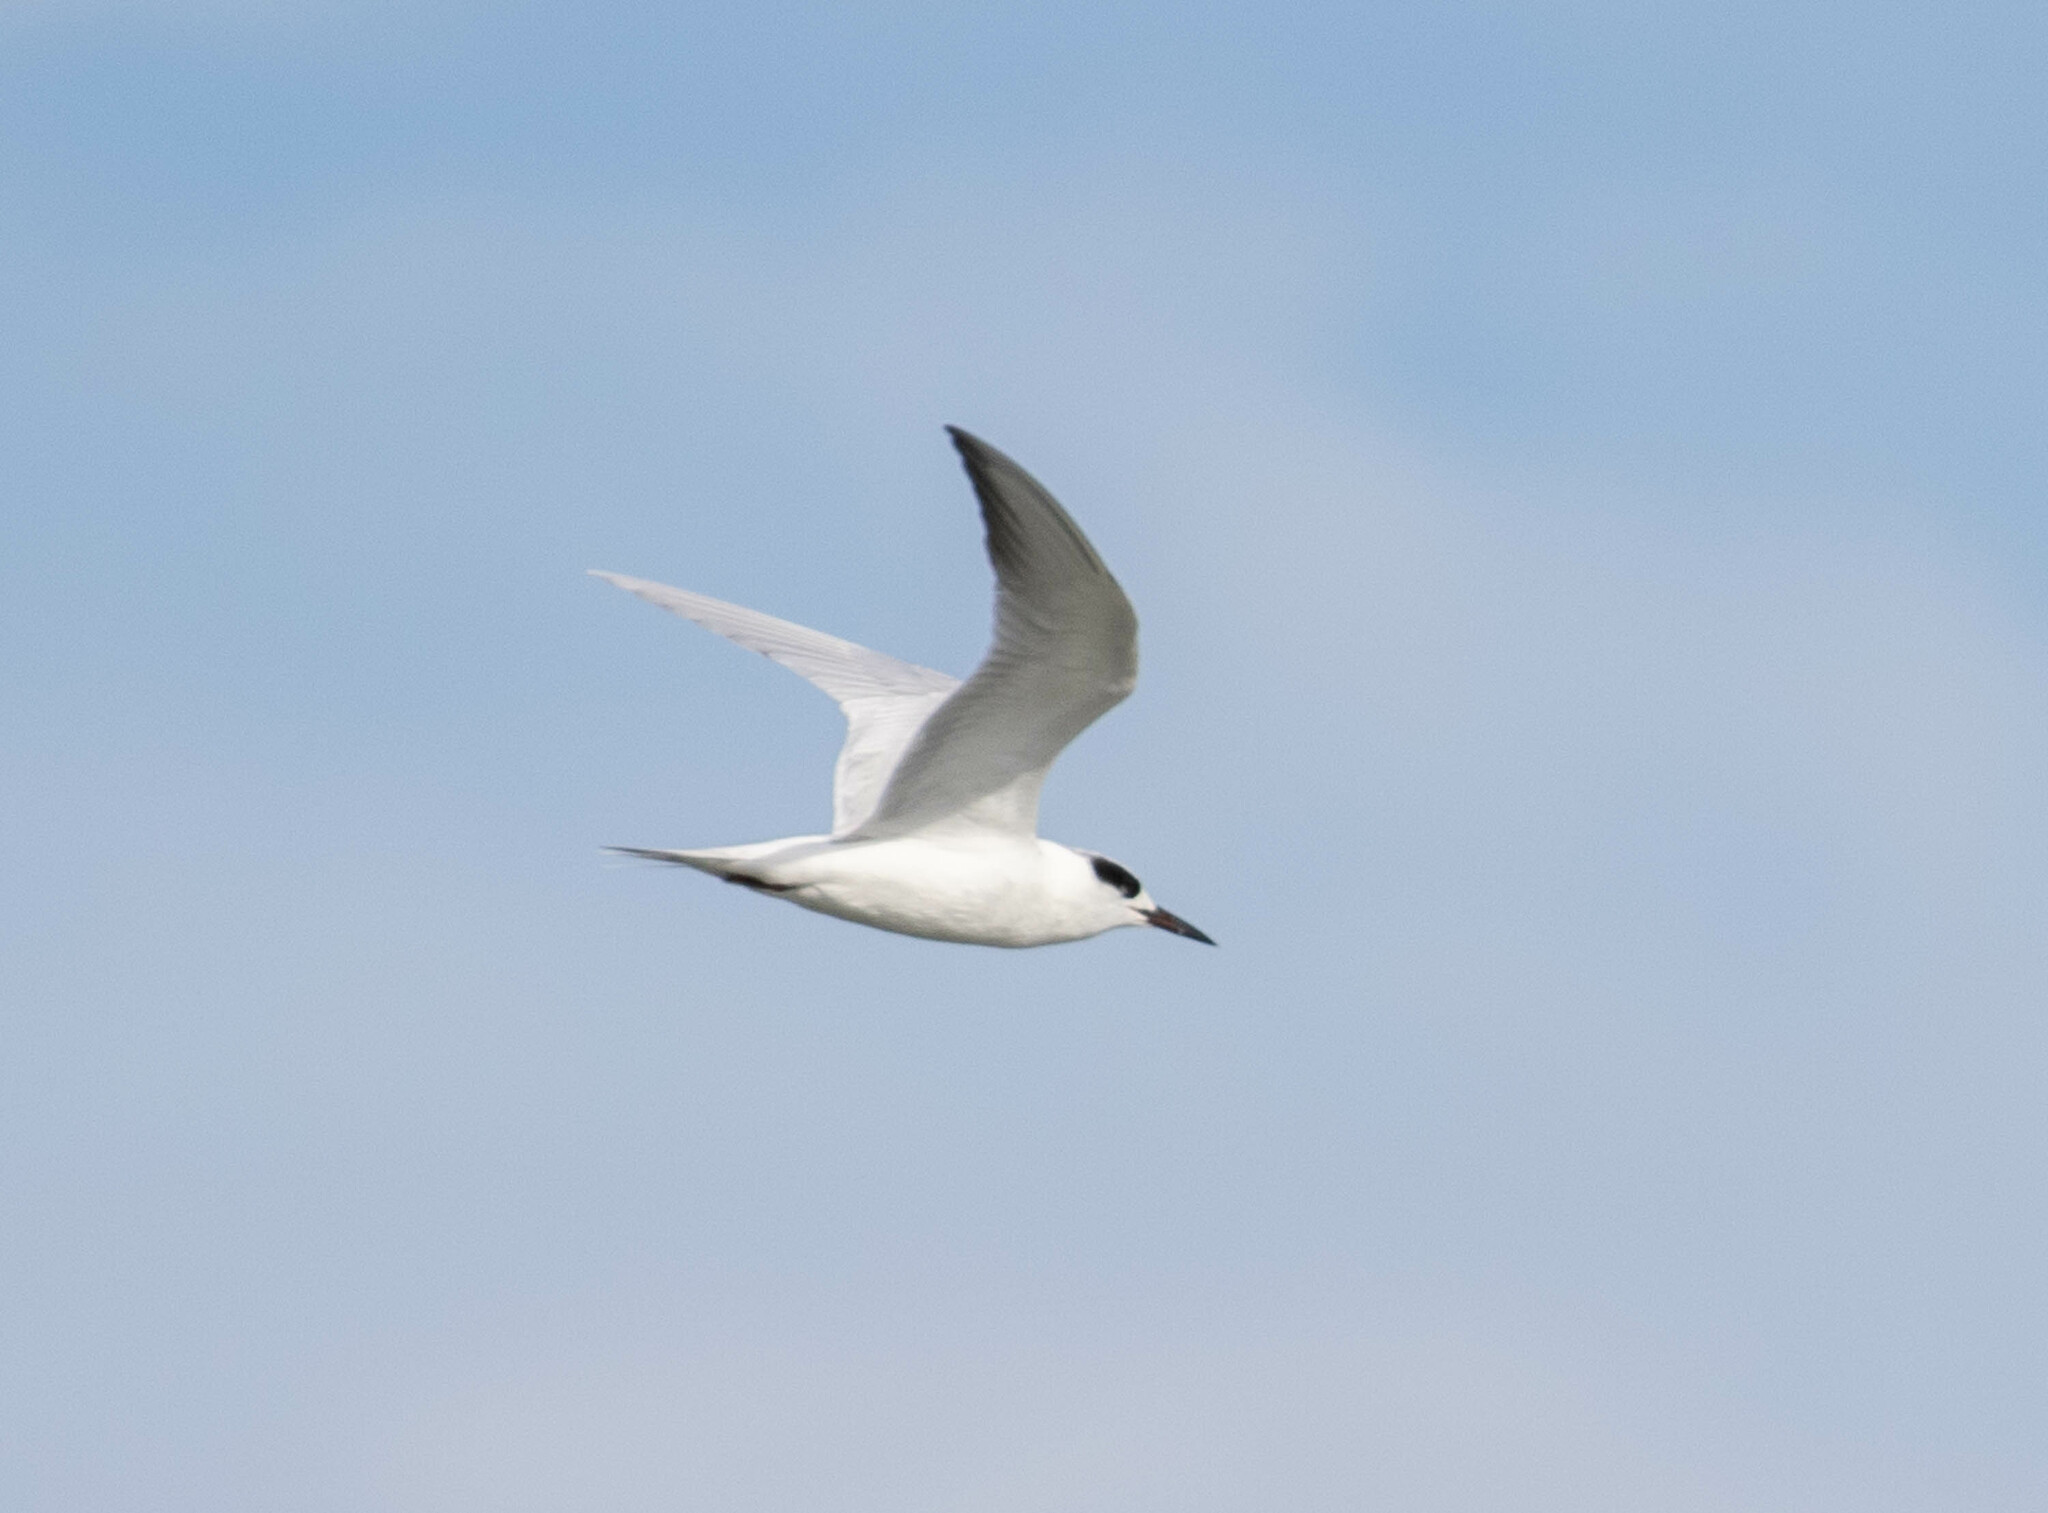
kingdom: Animalia
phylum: Chordata
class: Aves
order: Charadriiformes
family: Laridae
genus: Sterna
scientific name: Sterna forsteri
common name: Forster's tern
